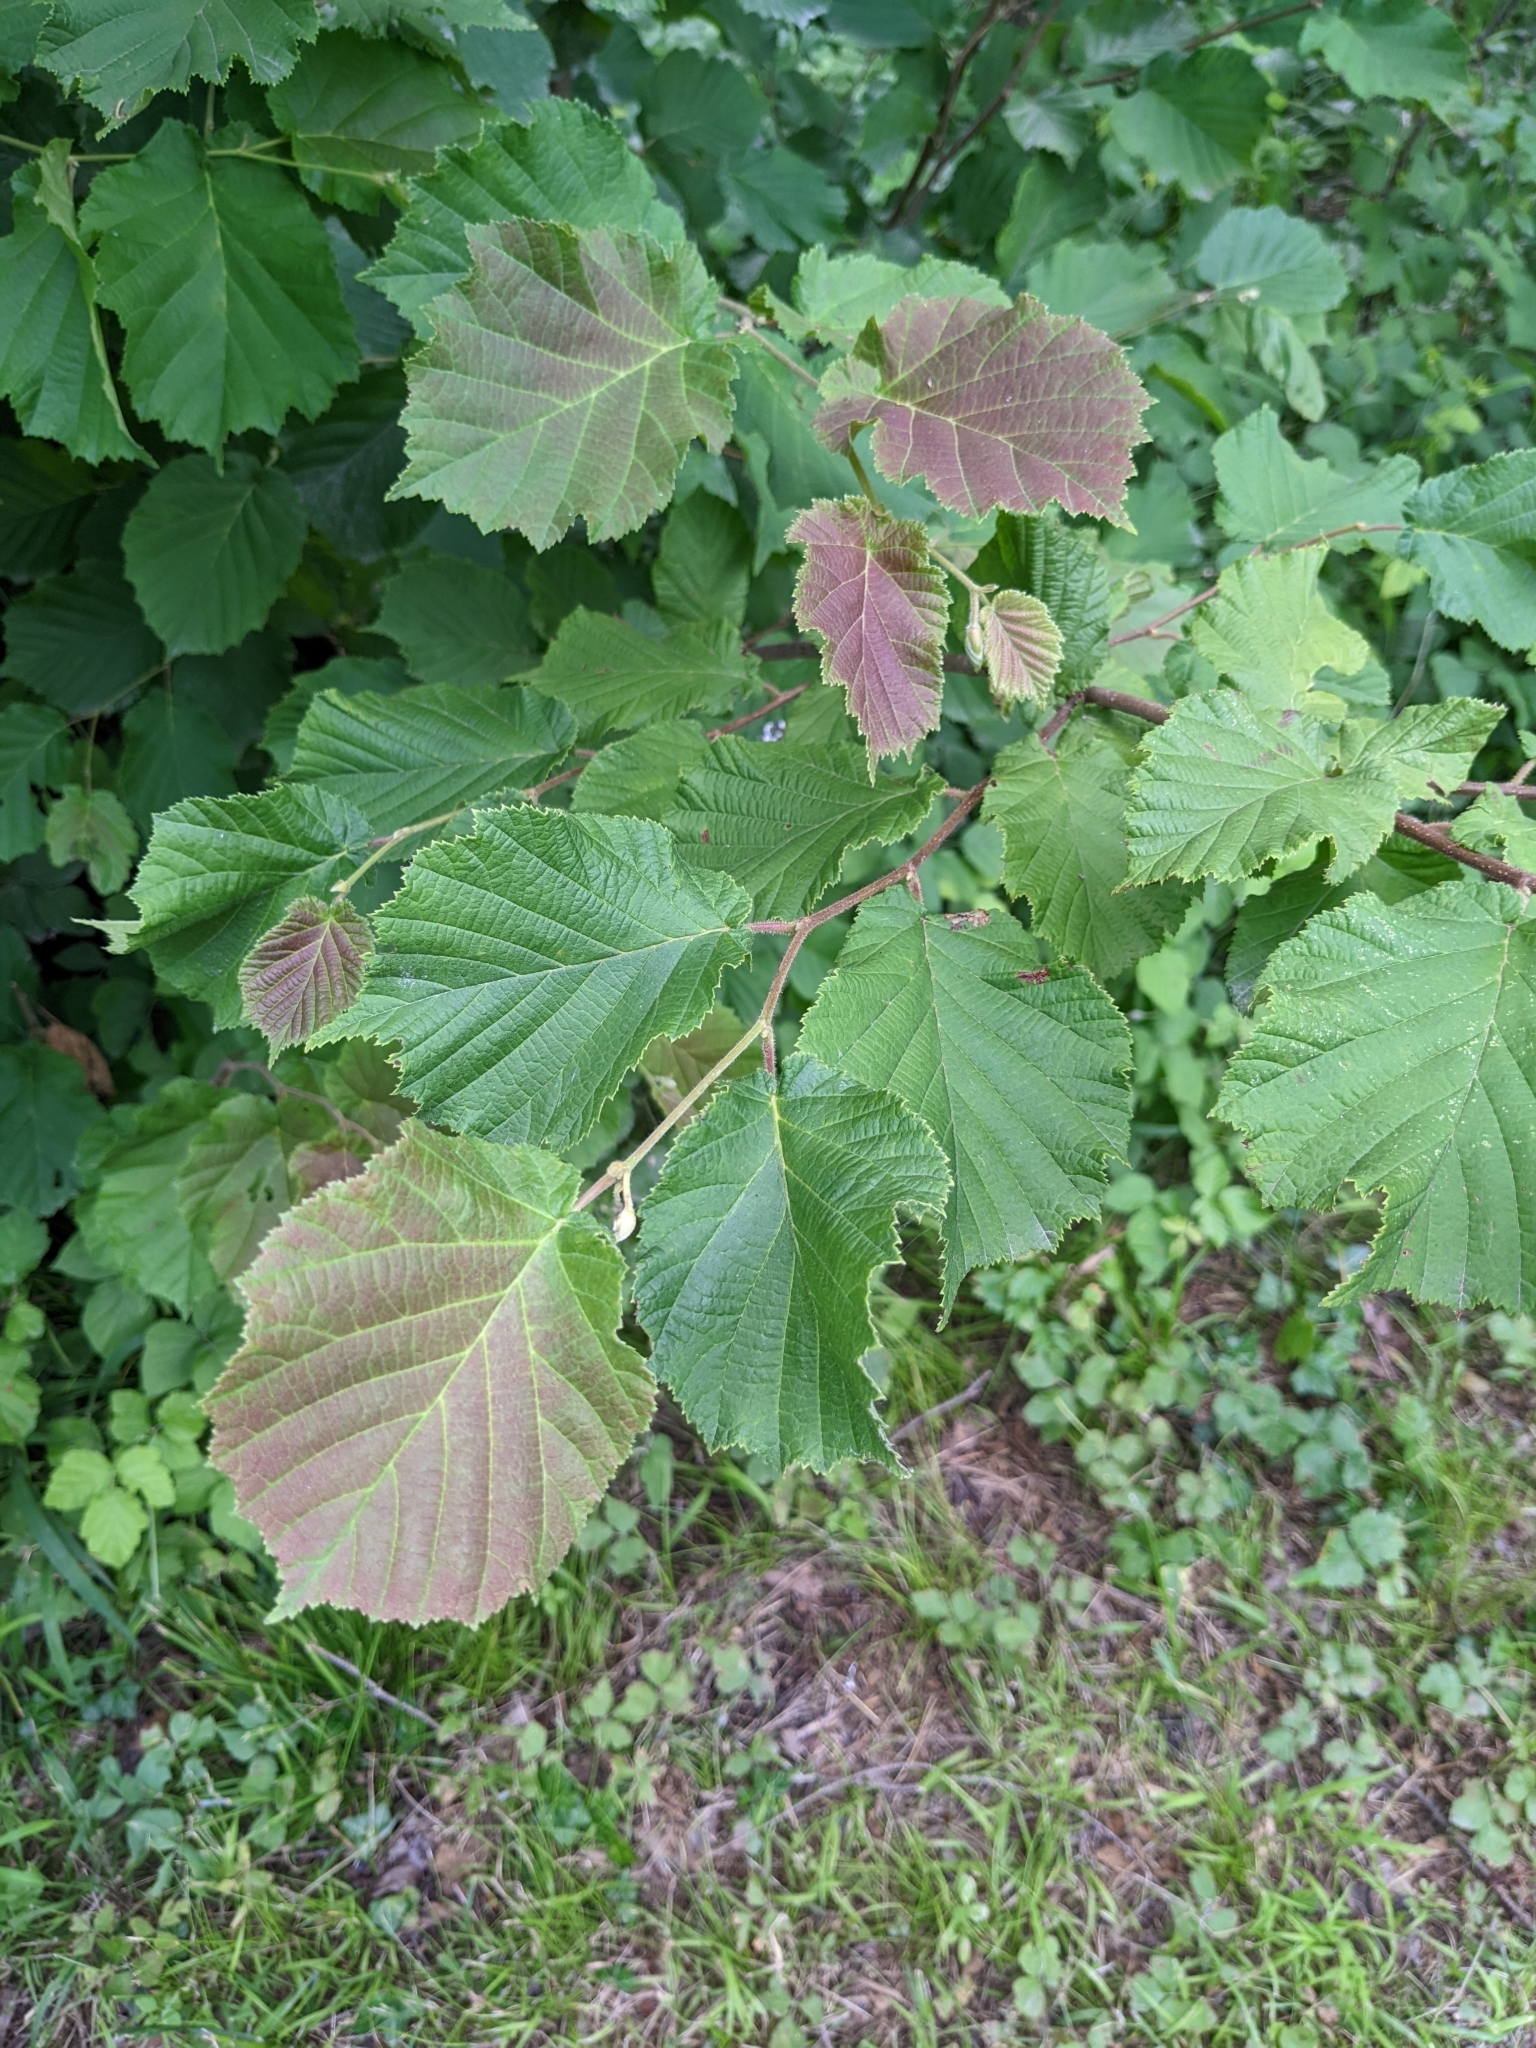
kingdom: Plantae
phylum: Tracheophyta
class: Magnoliopsida
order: Fagales
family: Betulaceae
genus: Corylus
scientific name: Corylus avellana
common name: European hazel
